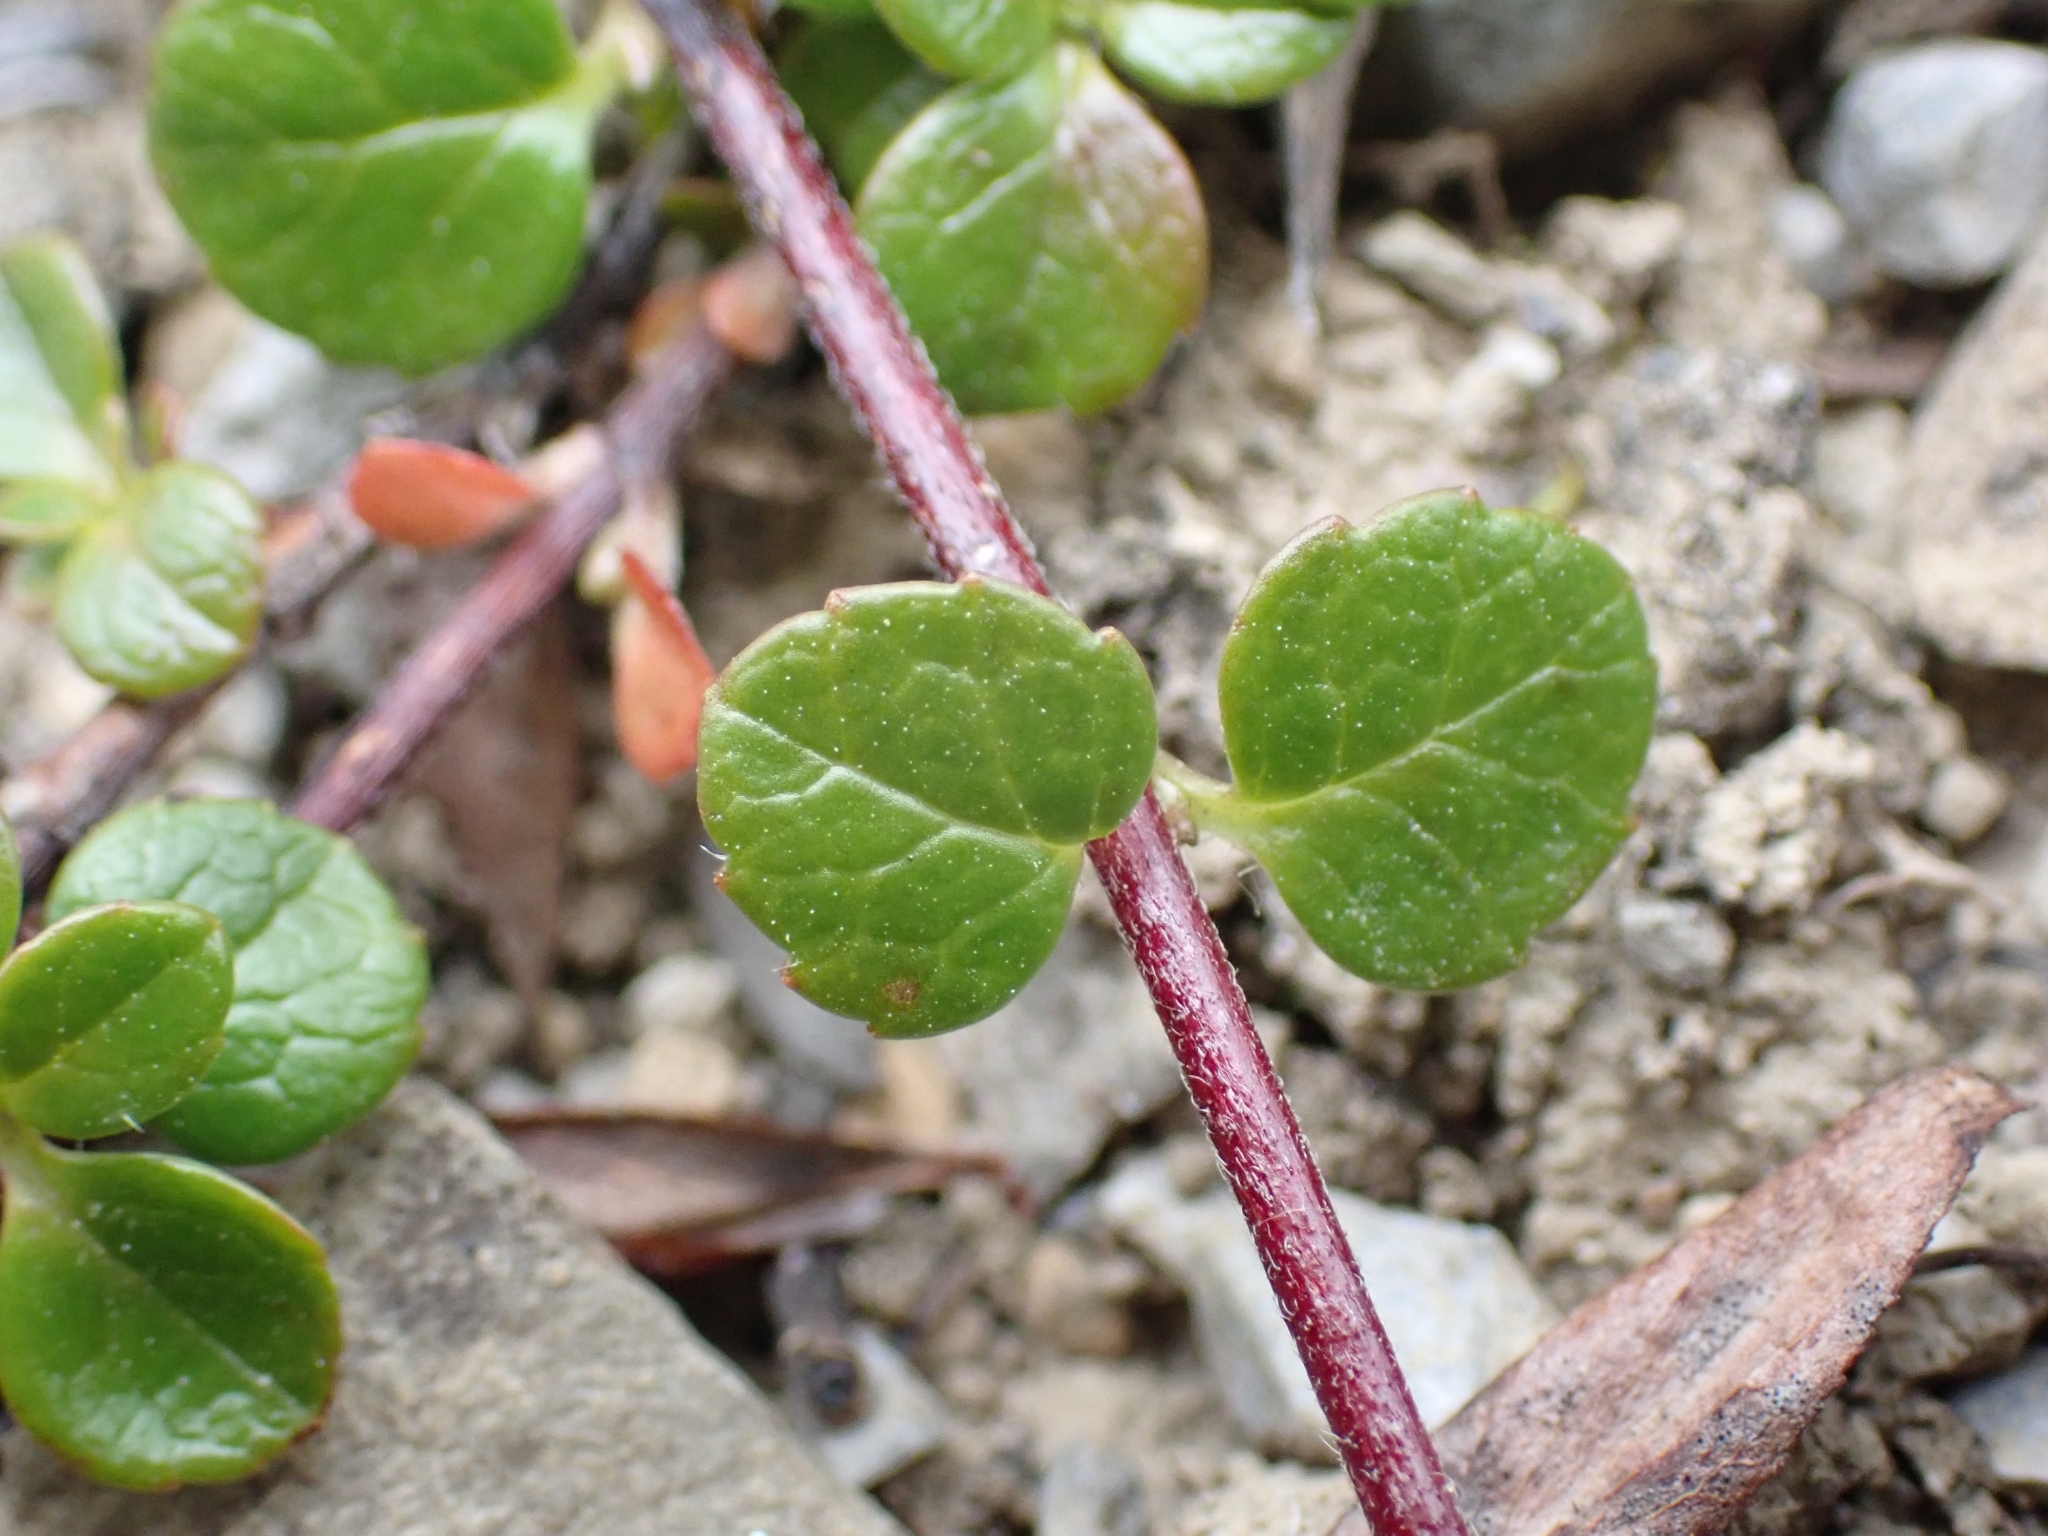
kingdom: Plantae
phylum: Tracheophyta
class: Magnoliopsida
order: Dipsacales
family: Caprifoliaceae
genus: Linnaea
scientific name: Linnaea borealis
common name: Twinflower
